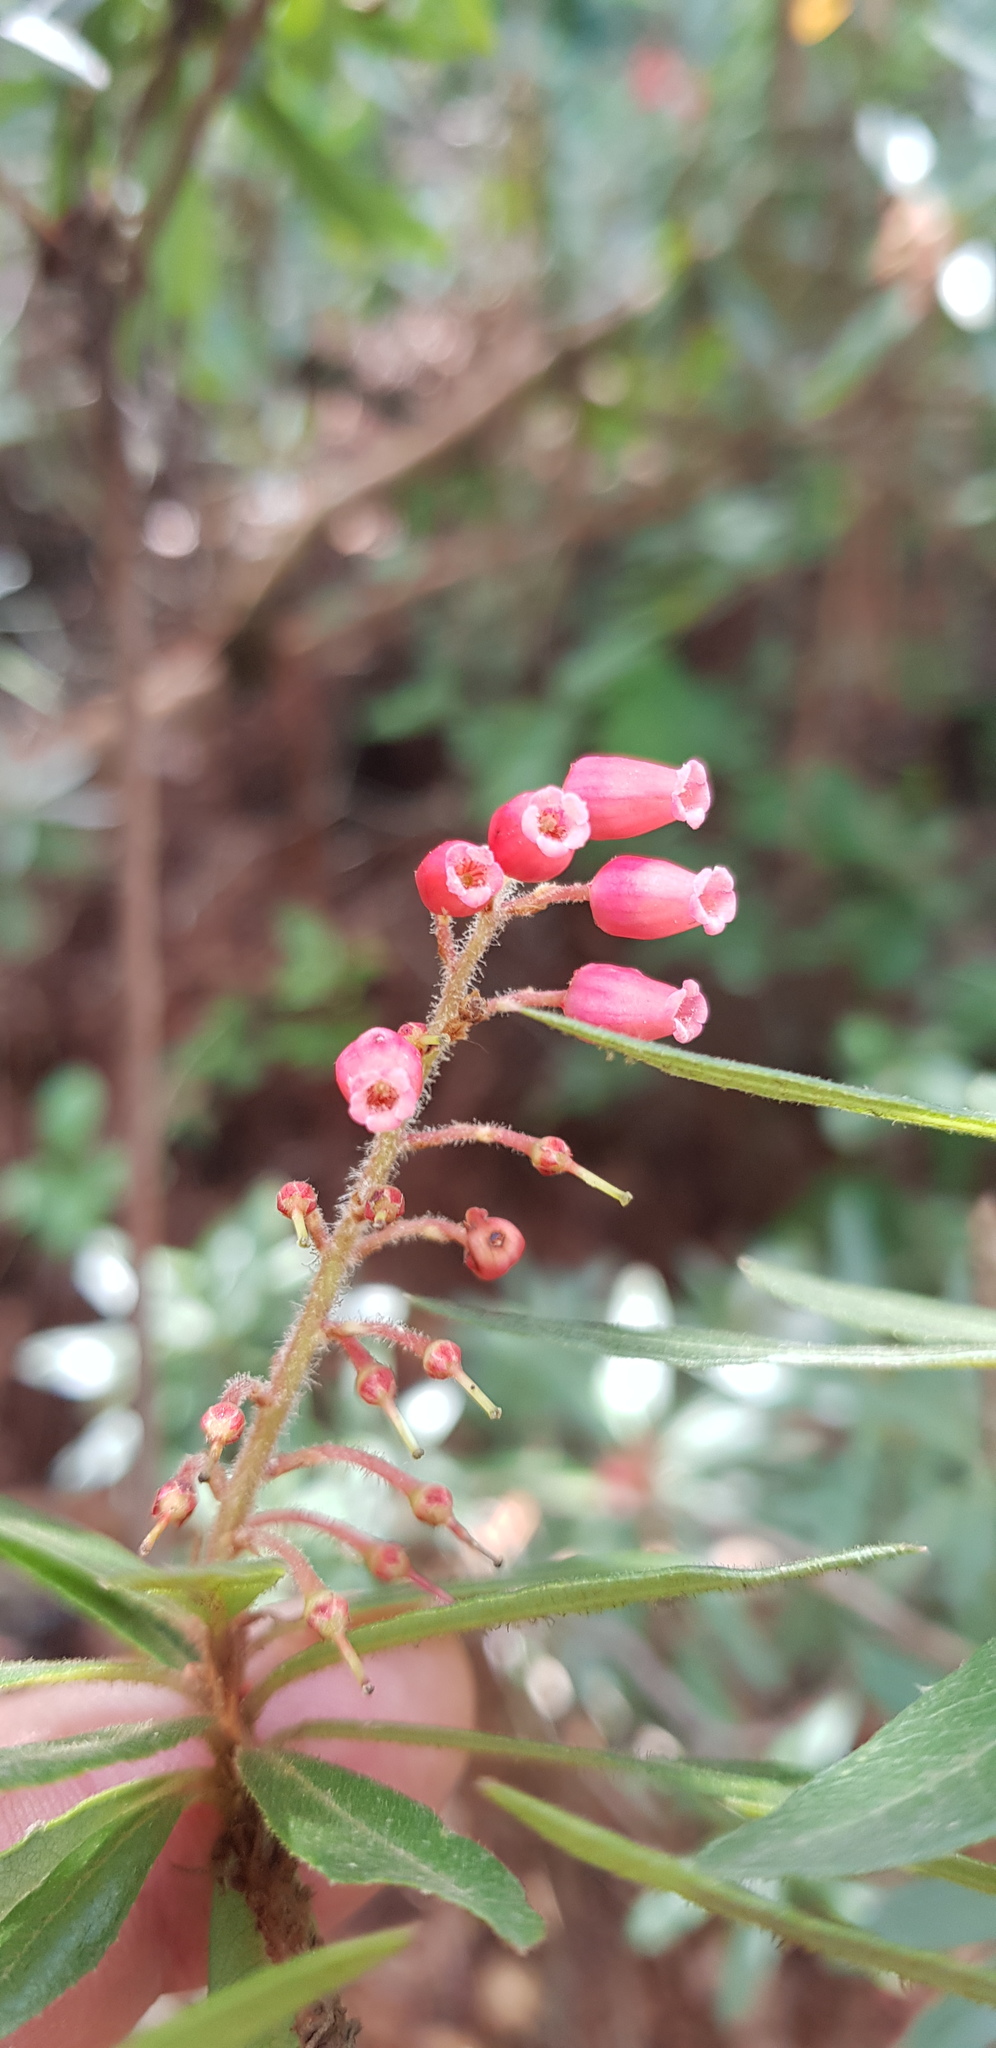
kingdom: Plantae
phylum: Tracheophyta
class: Magnoliopsida
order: Ericales
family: Ericaceae
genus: Comarostaphylis
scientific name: Comarostaphylis polifolia
